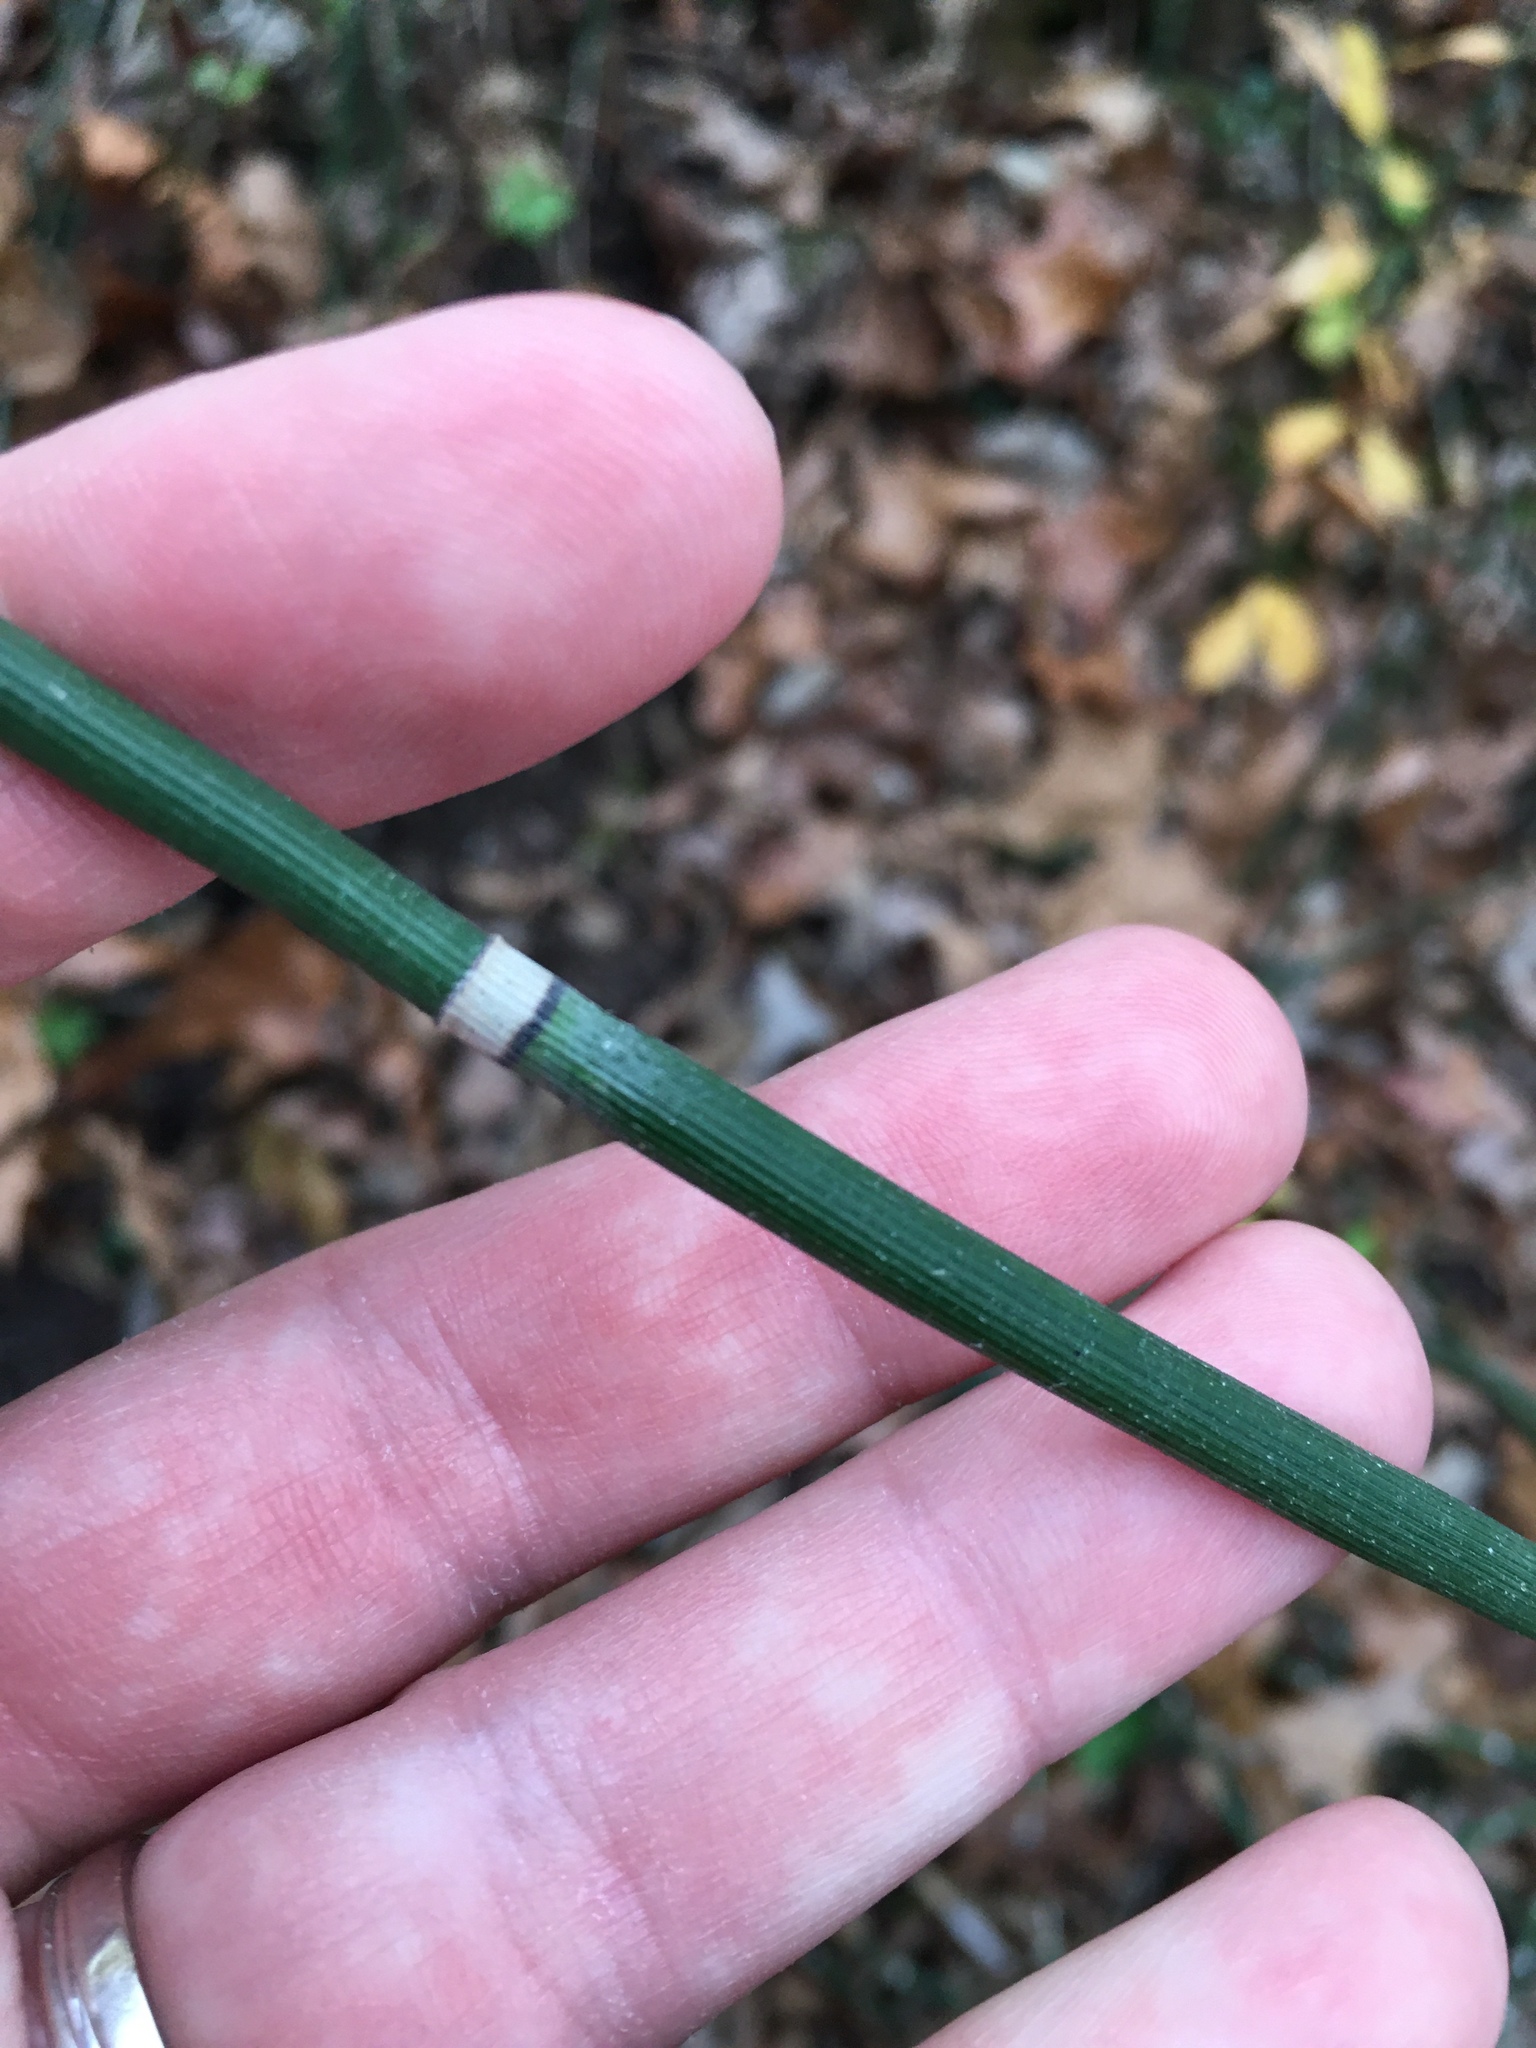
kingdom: Plantae
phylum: Tracheophyta
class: Polypodiopsida
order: Equisetales
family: Equisetaceae
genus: Equisetum
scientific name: Equisetum praealtum
